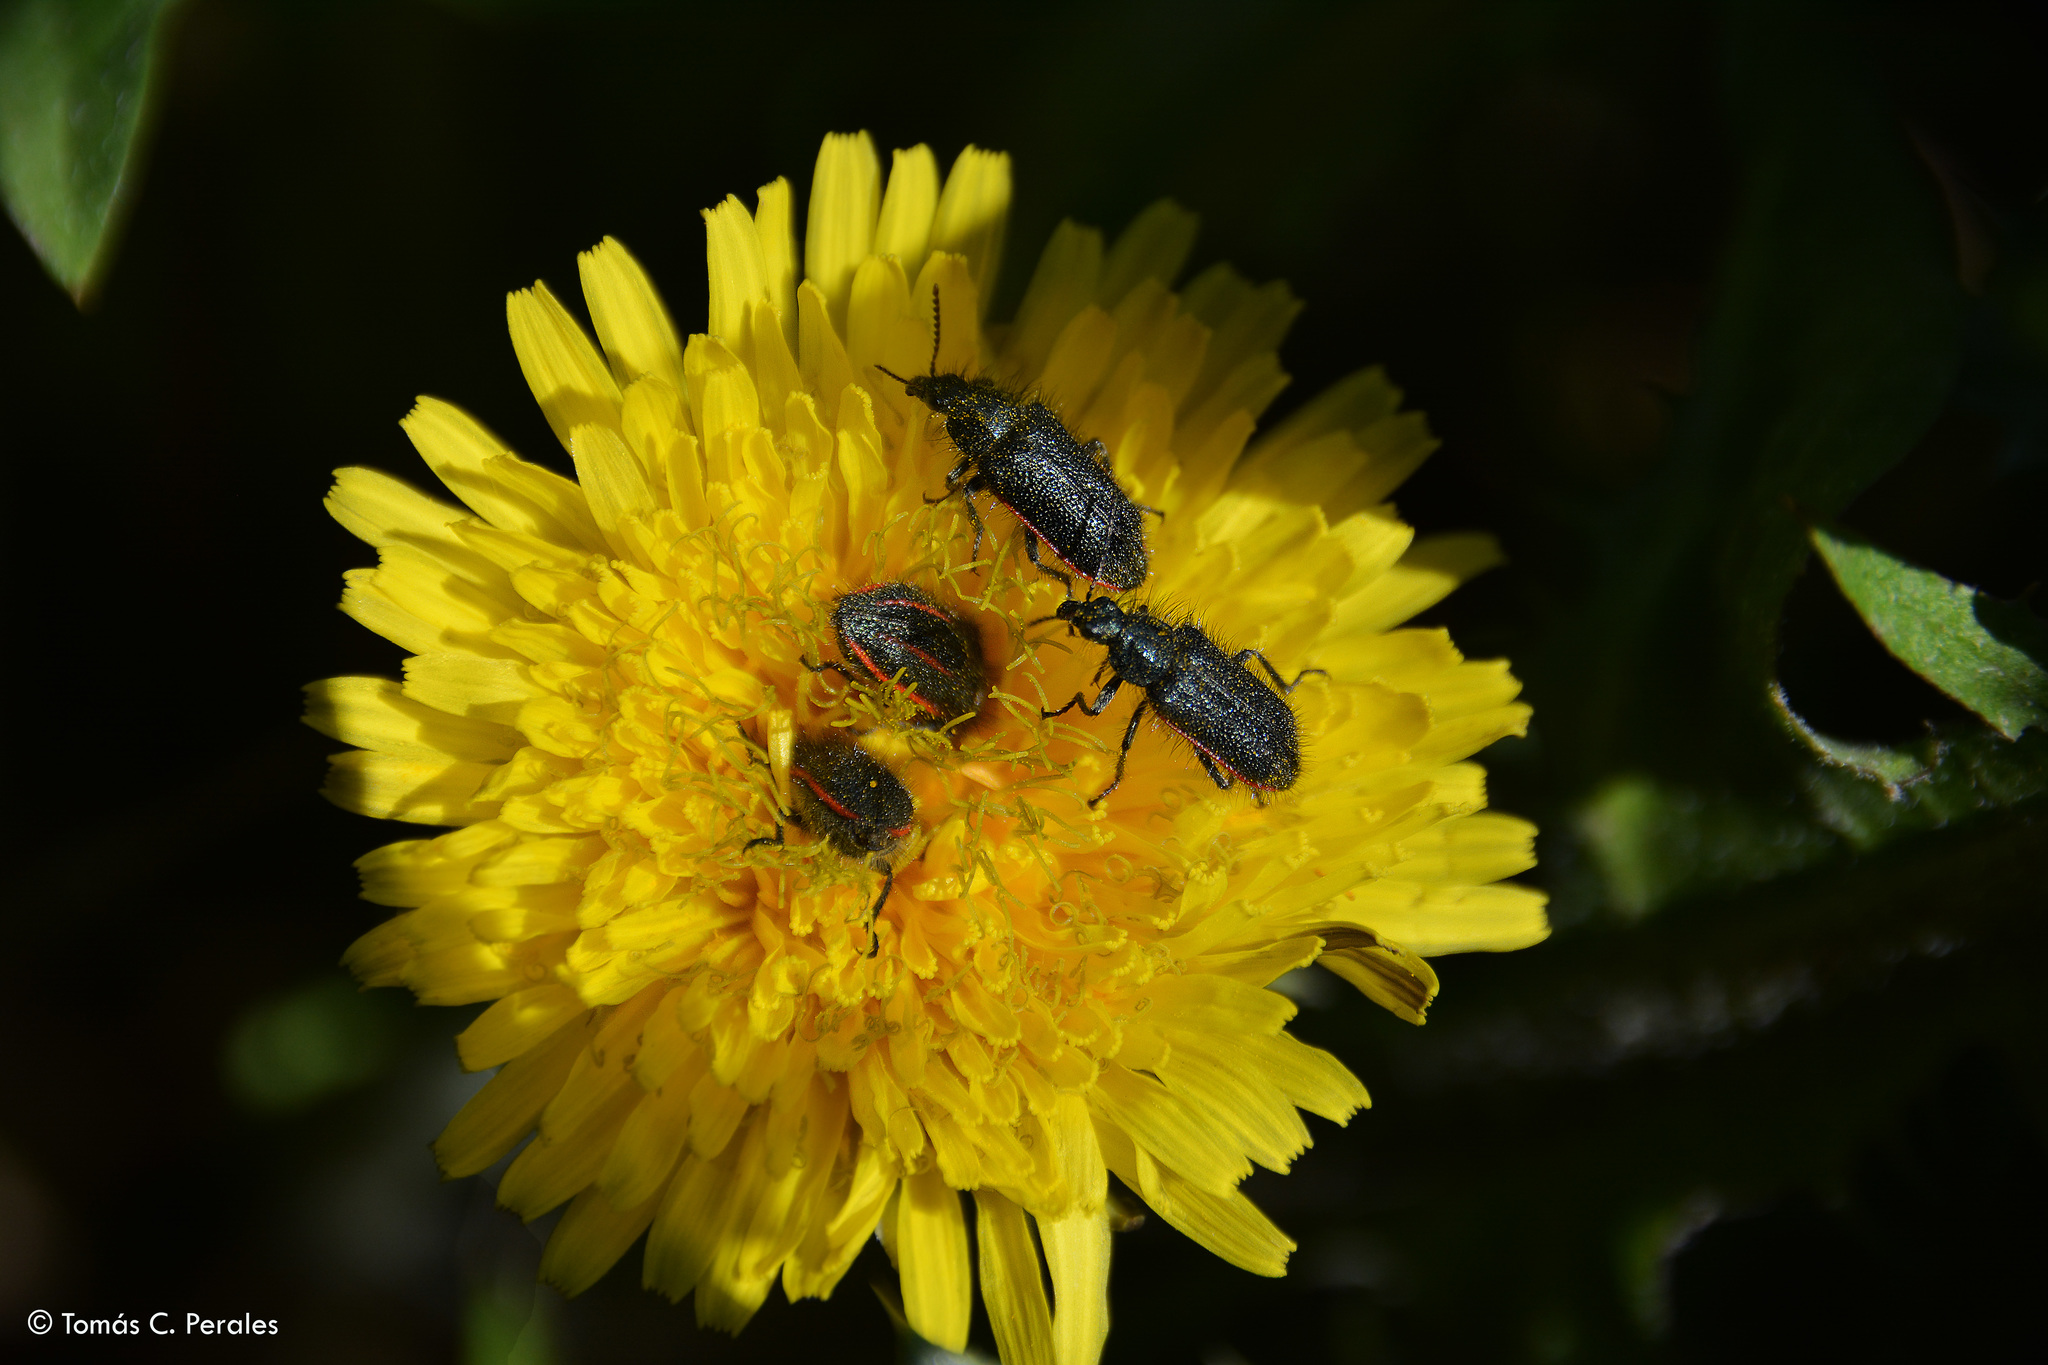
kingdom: Animalia
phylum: Arthropoda
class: Insecta
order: Coleoptera
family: Melyridae
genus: Astylus
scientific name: Astylus
